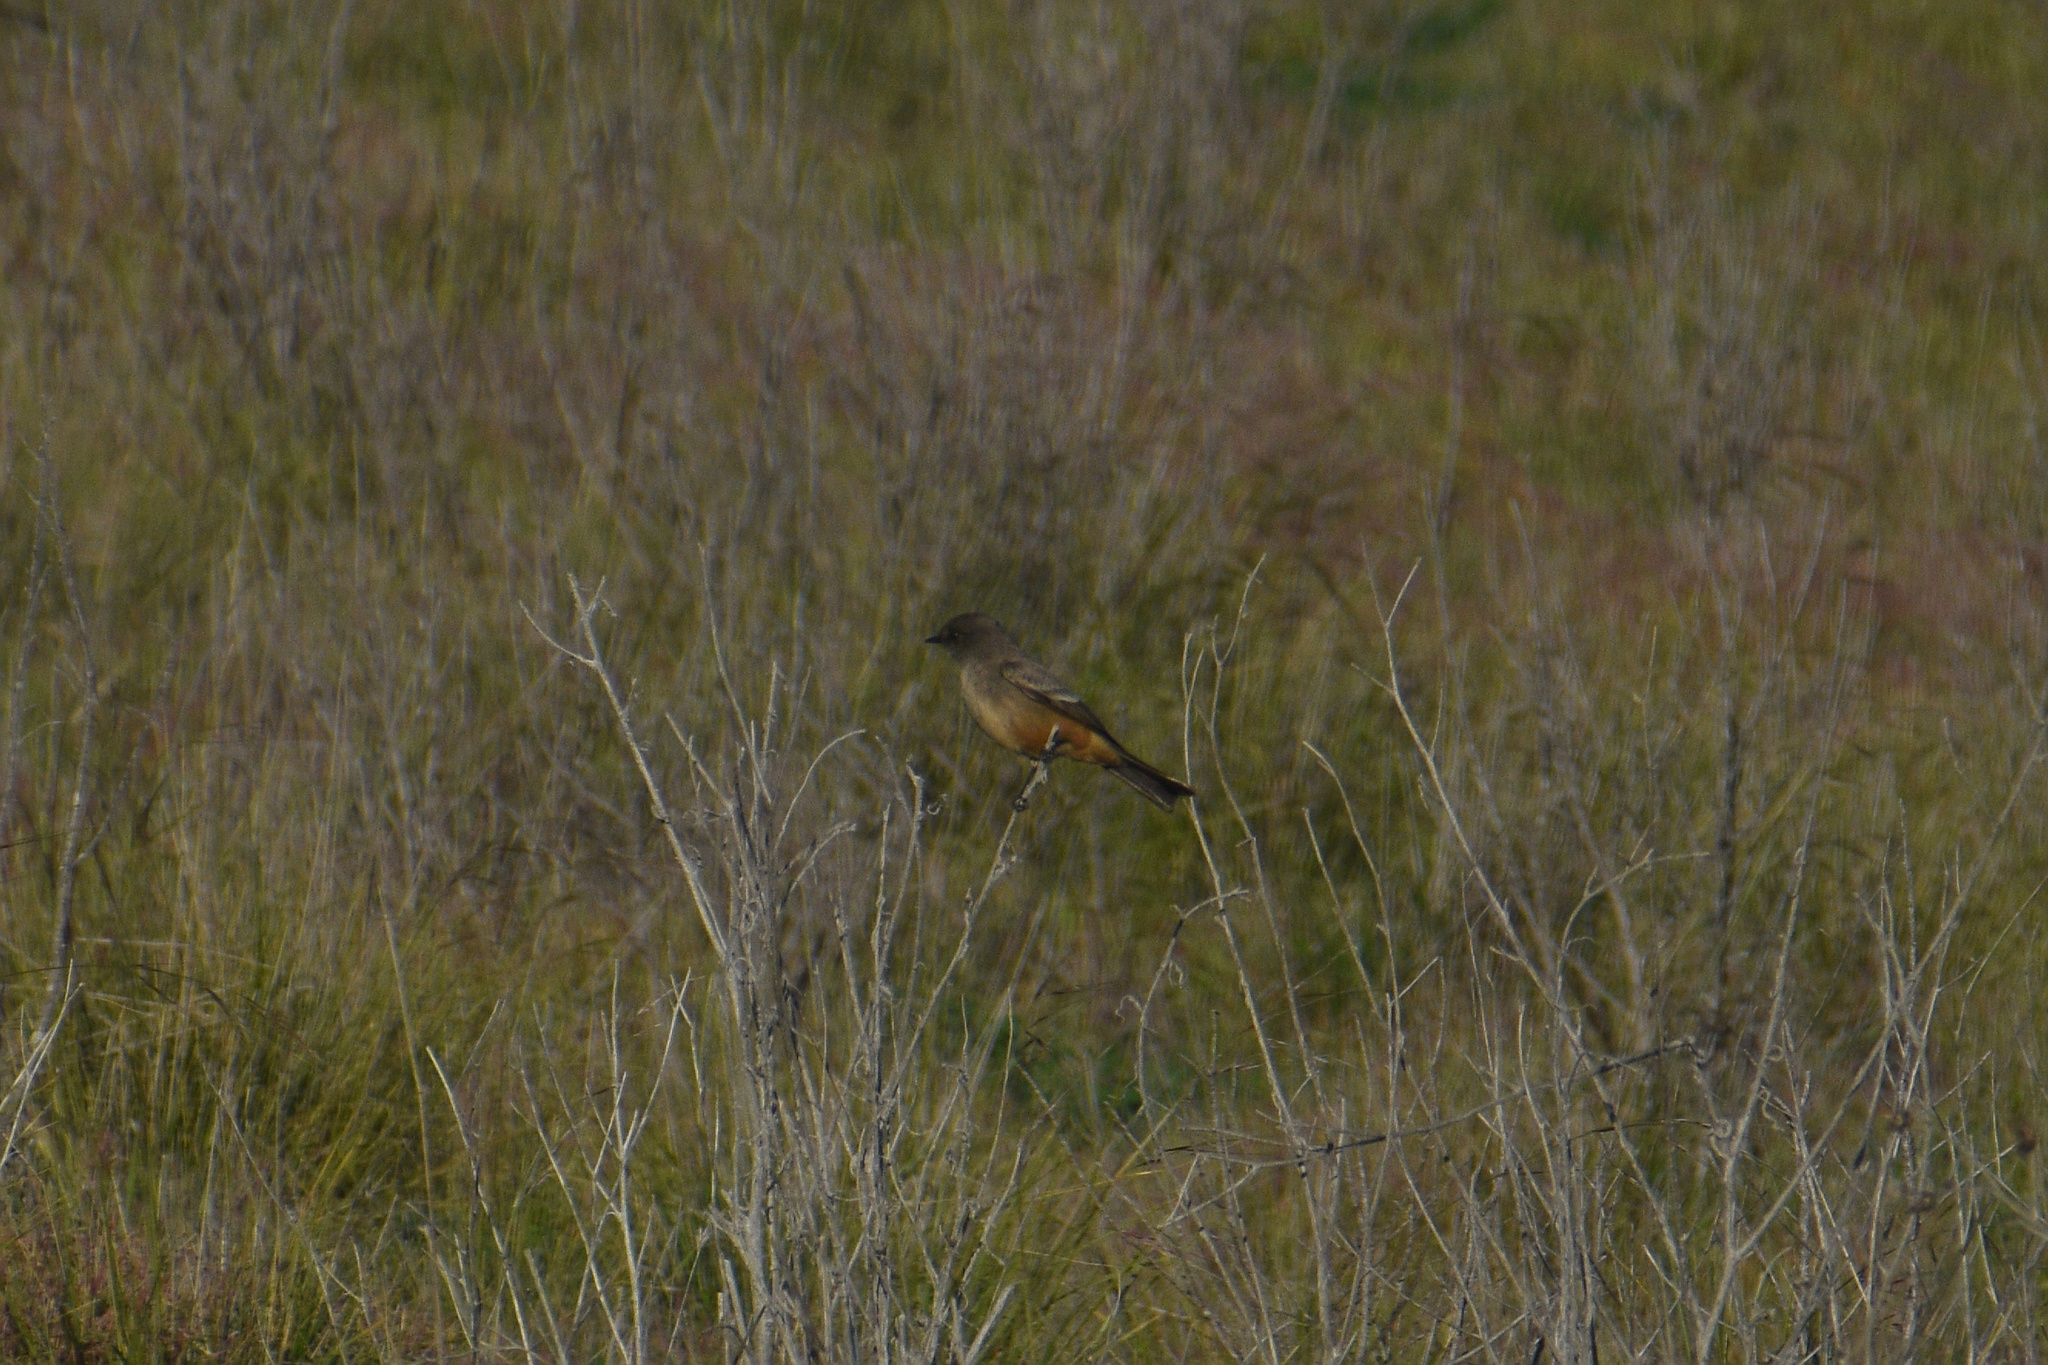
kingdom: Animalia
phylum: Chordata
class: Aves
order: Passeriformes
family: Tyrannidae
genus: Sayornis
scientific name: Sayornis saya
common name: Say's phoebe
